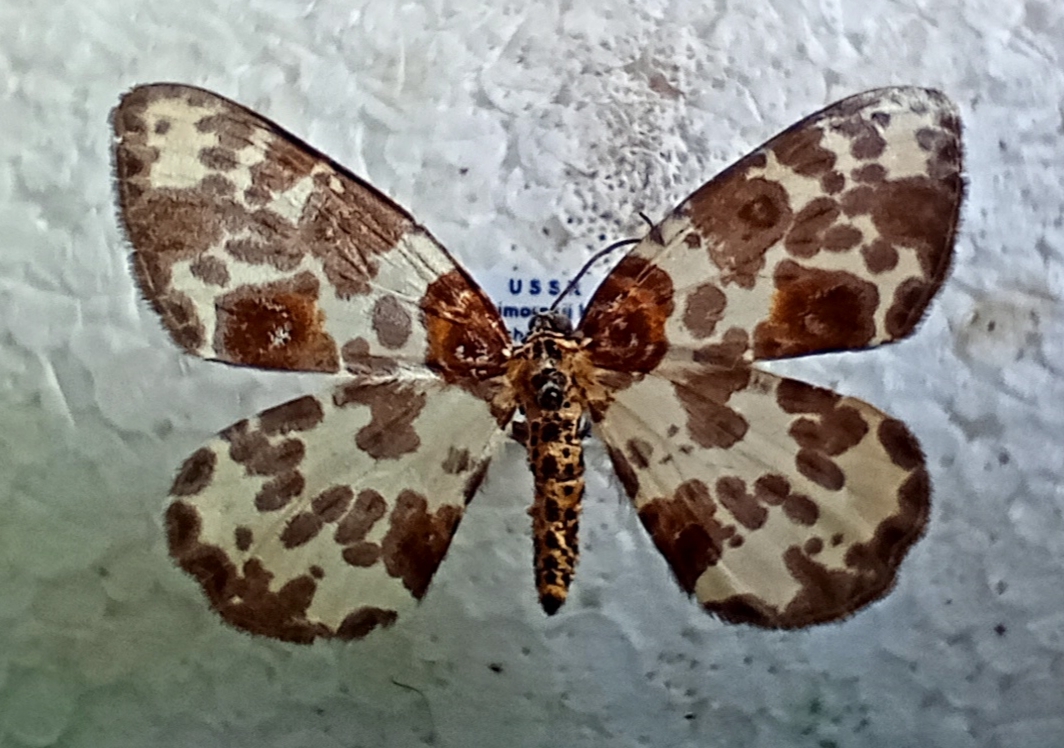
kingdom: Animalia
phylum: Arthropoda
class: Insecta
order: Lepidoptera
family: Geometridae
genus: Abraxas
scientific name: Abraxas fulvobasalis
